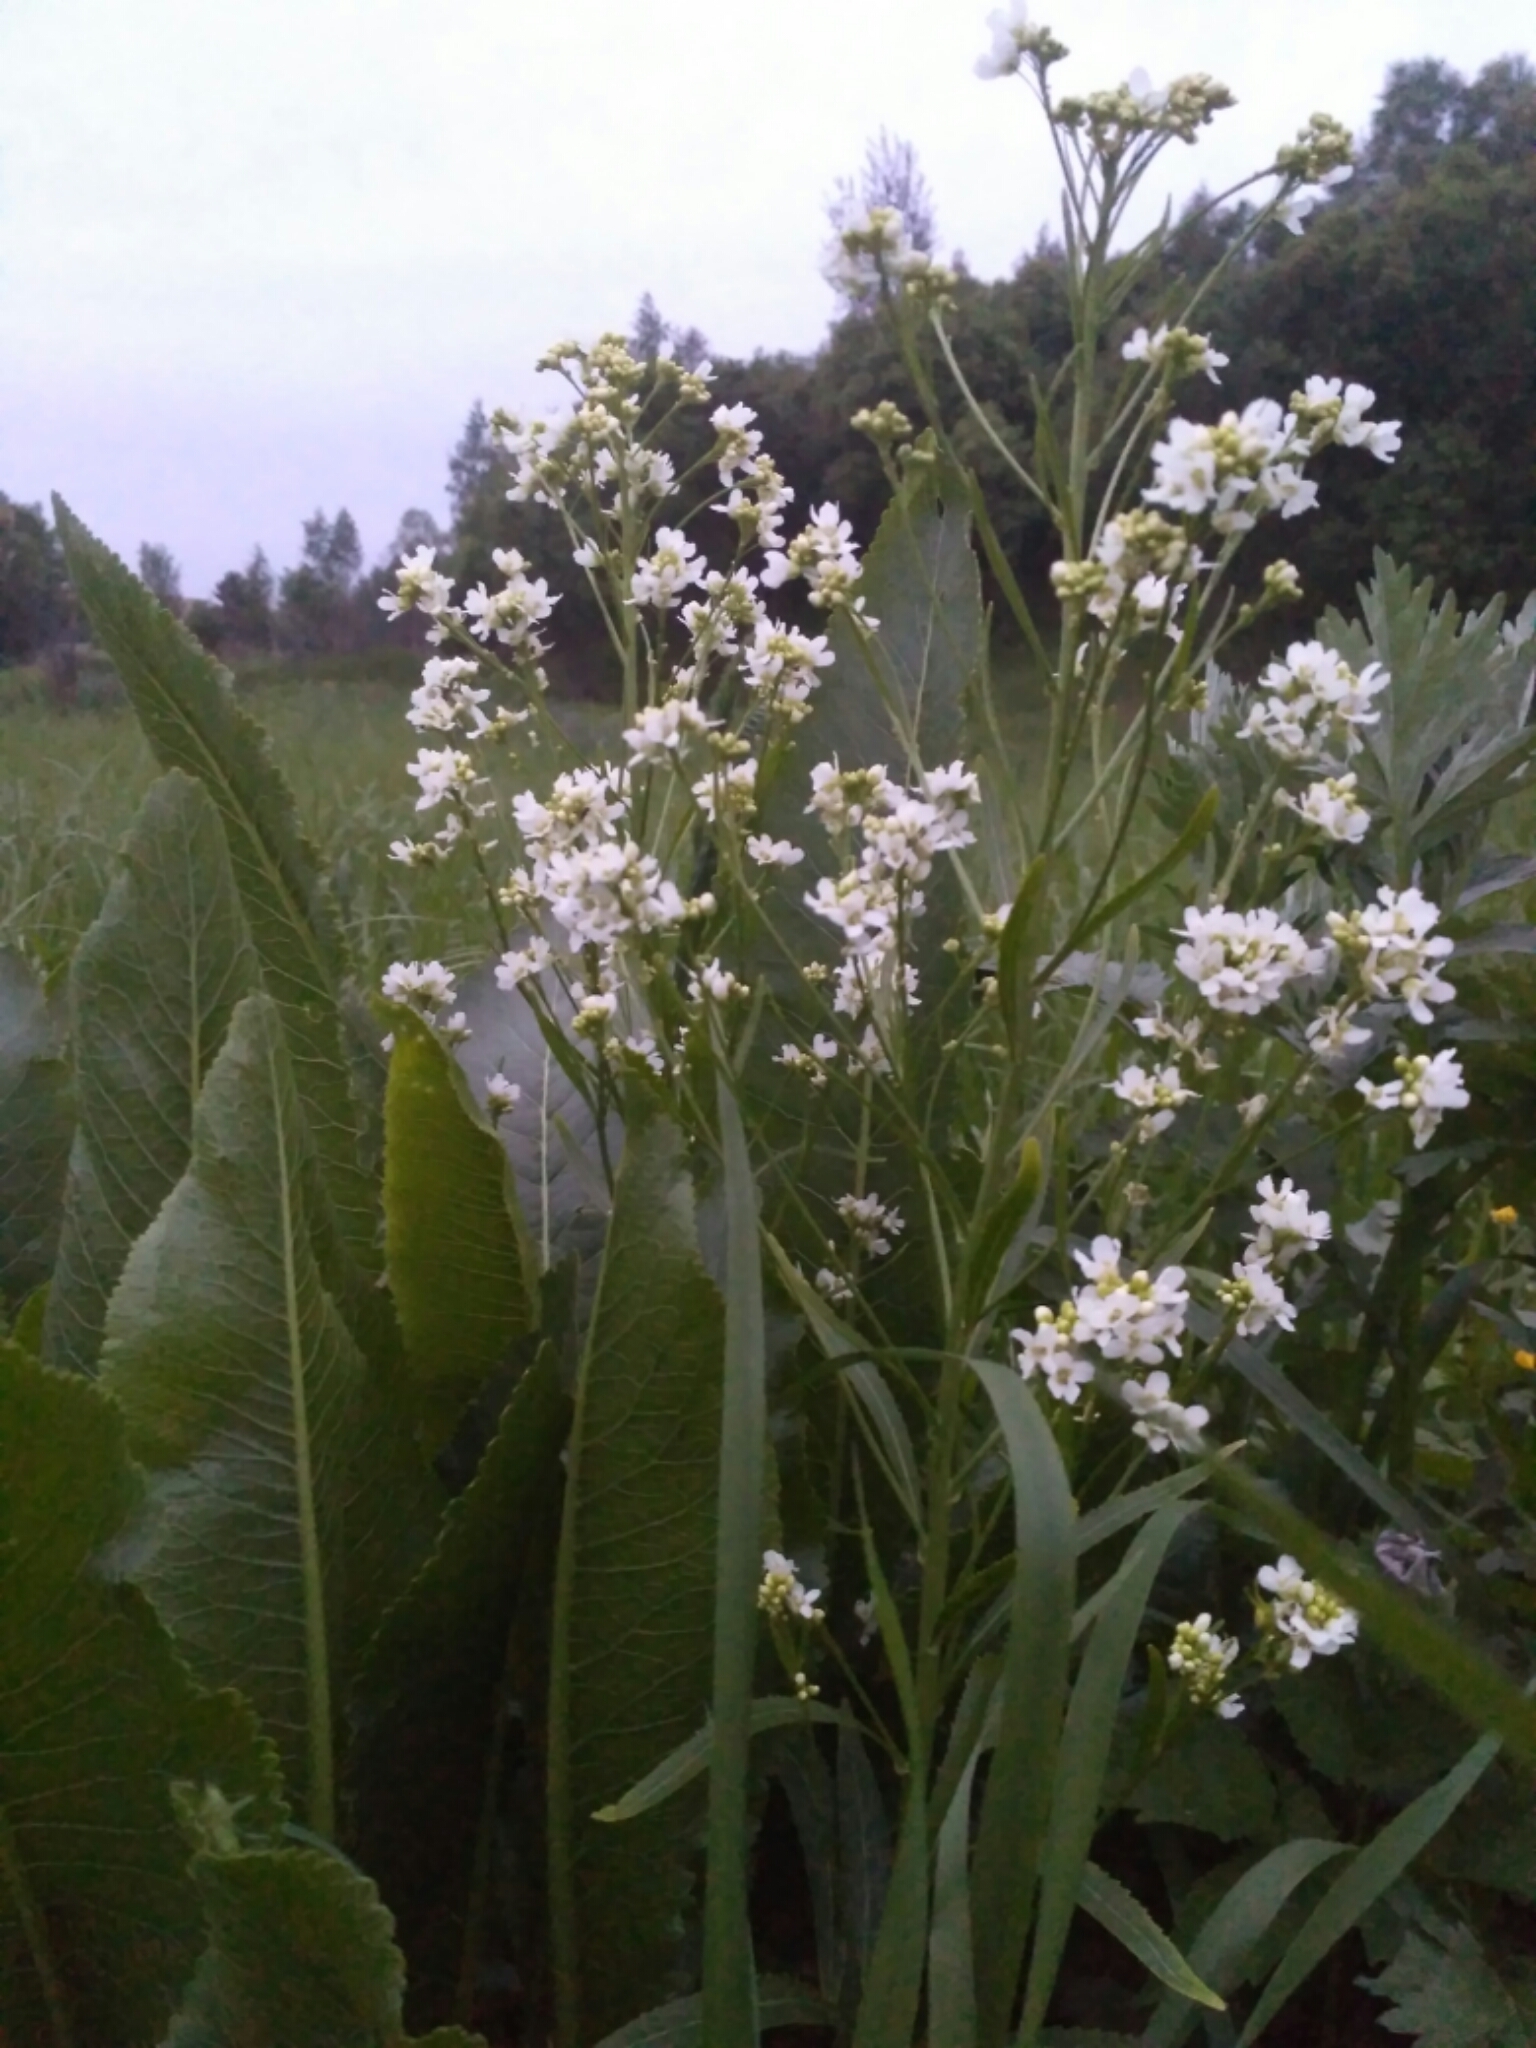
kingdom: Plantae
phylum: Tracheophyta
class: Magnoliopsida
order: Brassicales
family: Brassicaceae
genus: Armoracia
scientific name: Armoracia rusticana
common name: Horseradish
